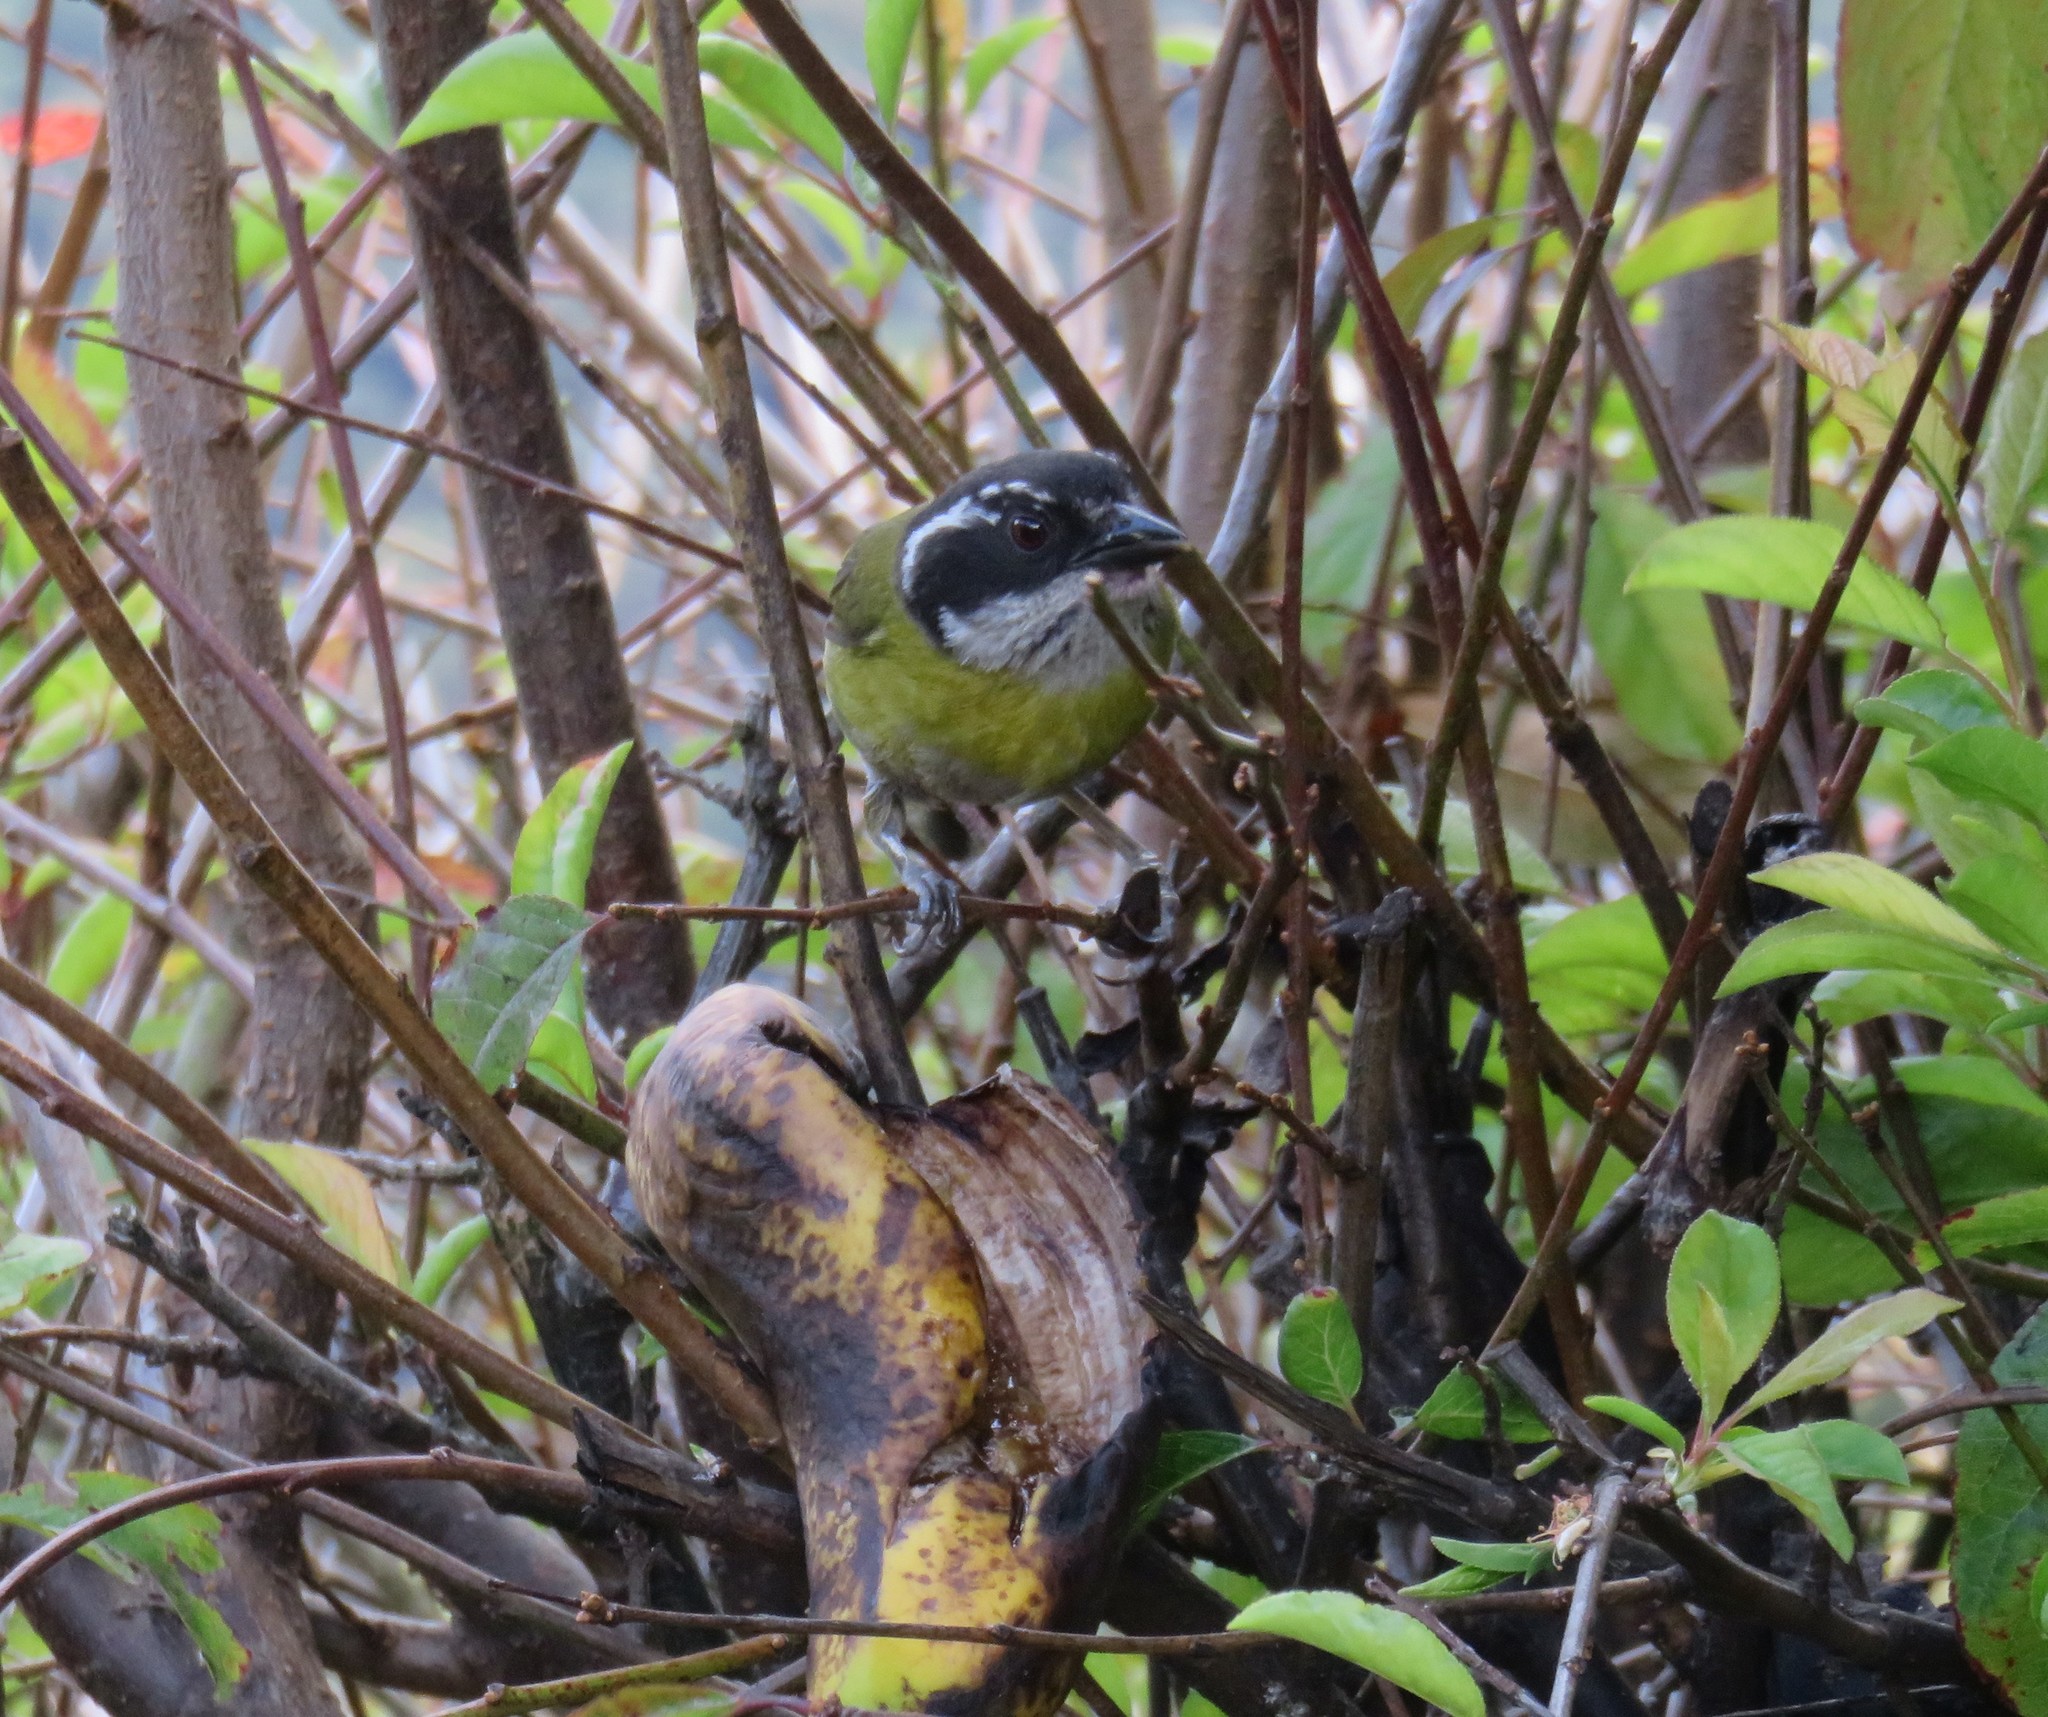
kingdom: Animalia
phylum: Chordata
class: Aves
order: Passeriformes
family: Passerellidae
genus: Chlorospingus
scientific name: Chlorospingus pileatus
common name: Sooty-capped bush-tanager
